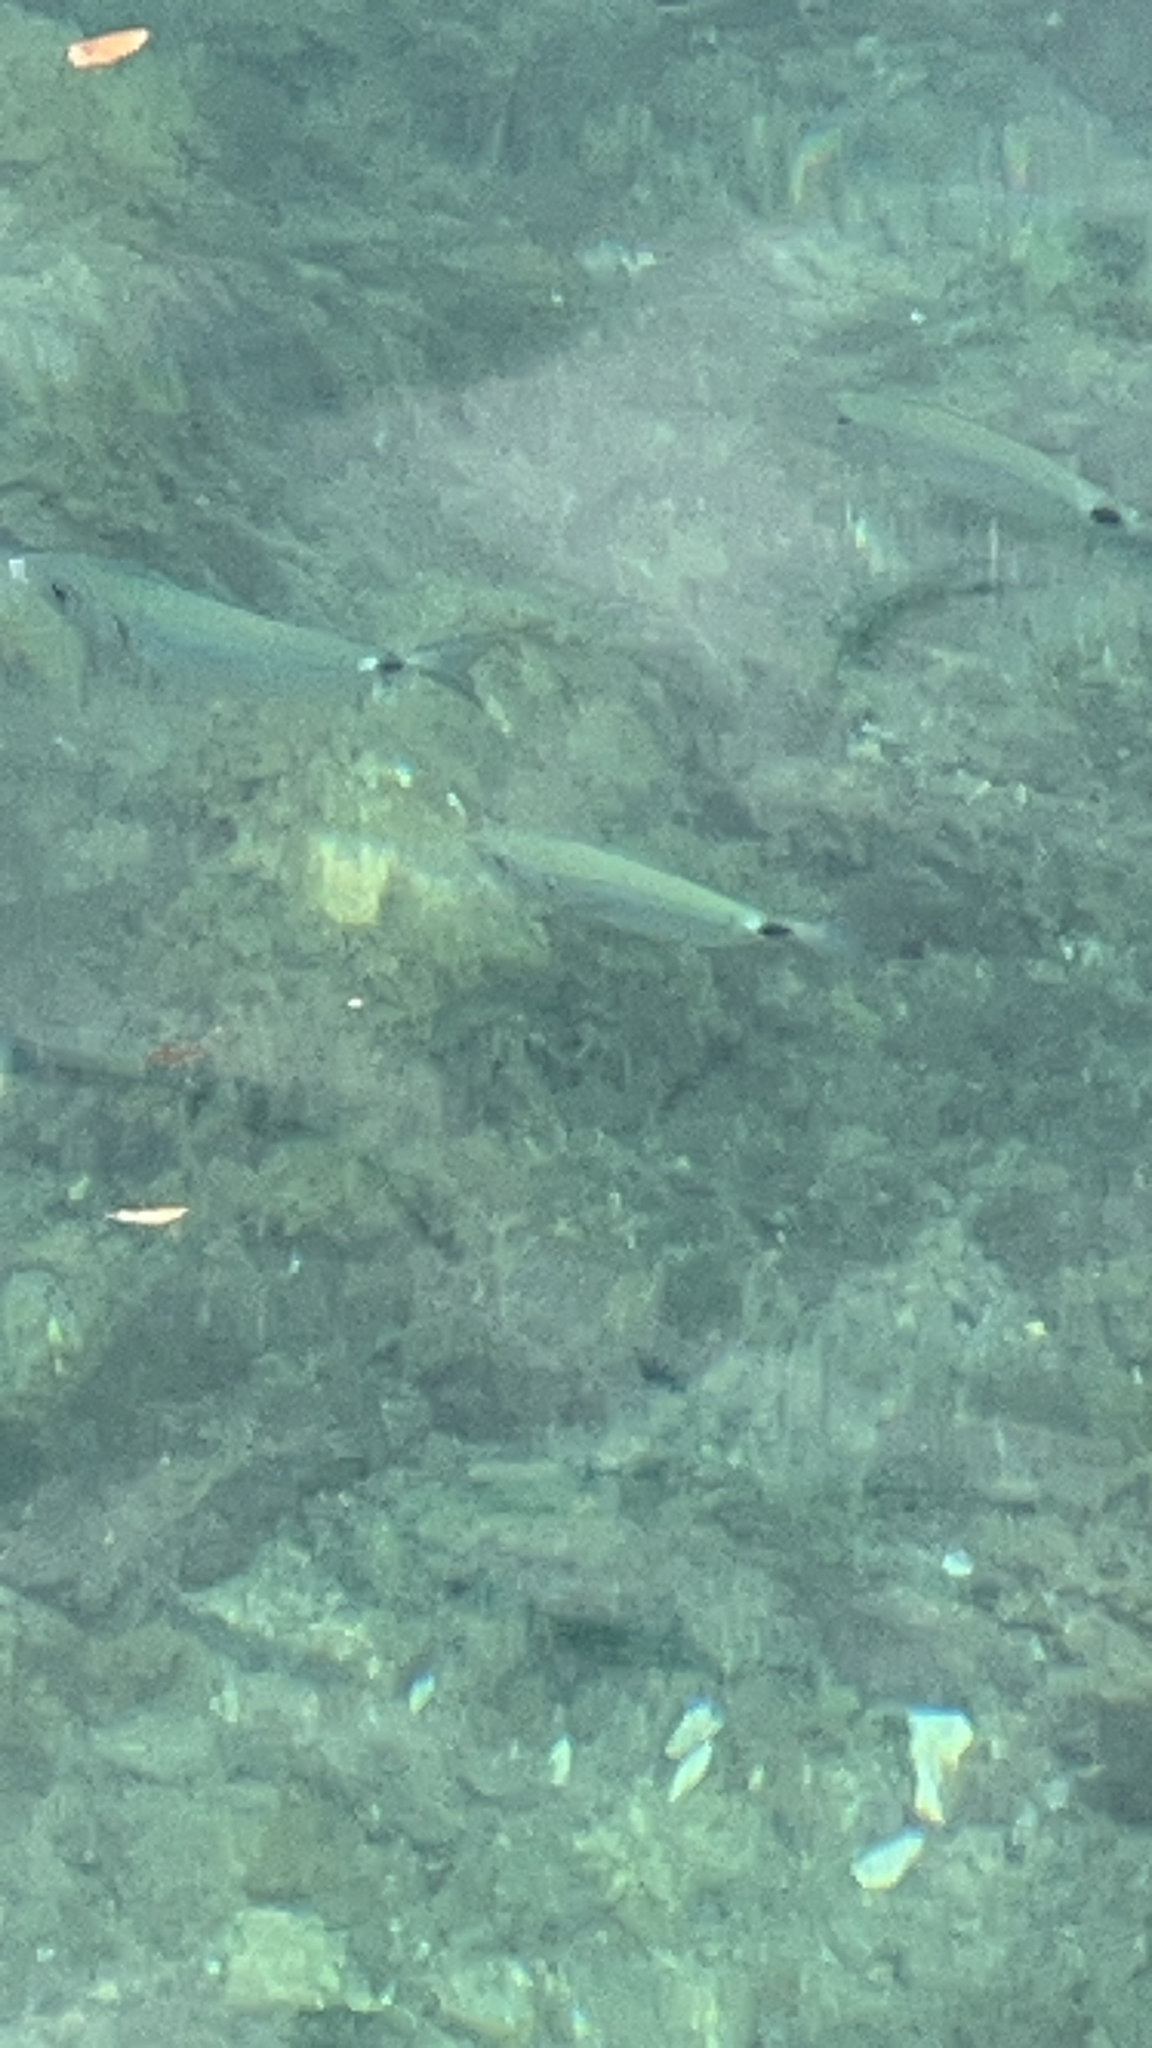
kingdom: Animalia
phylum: Chordata
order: Perciformes
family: Sparidae
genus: Oblada
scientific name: Oblada melanura
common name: Saddled seabream
